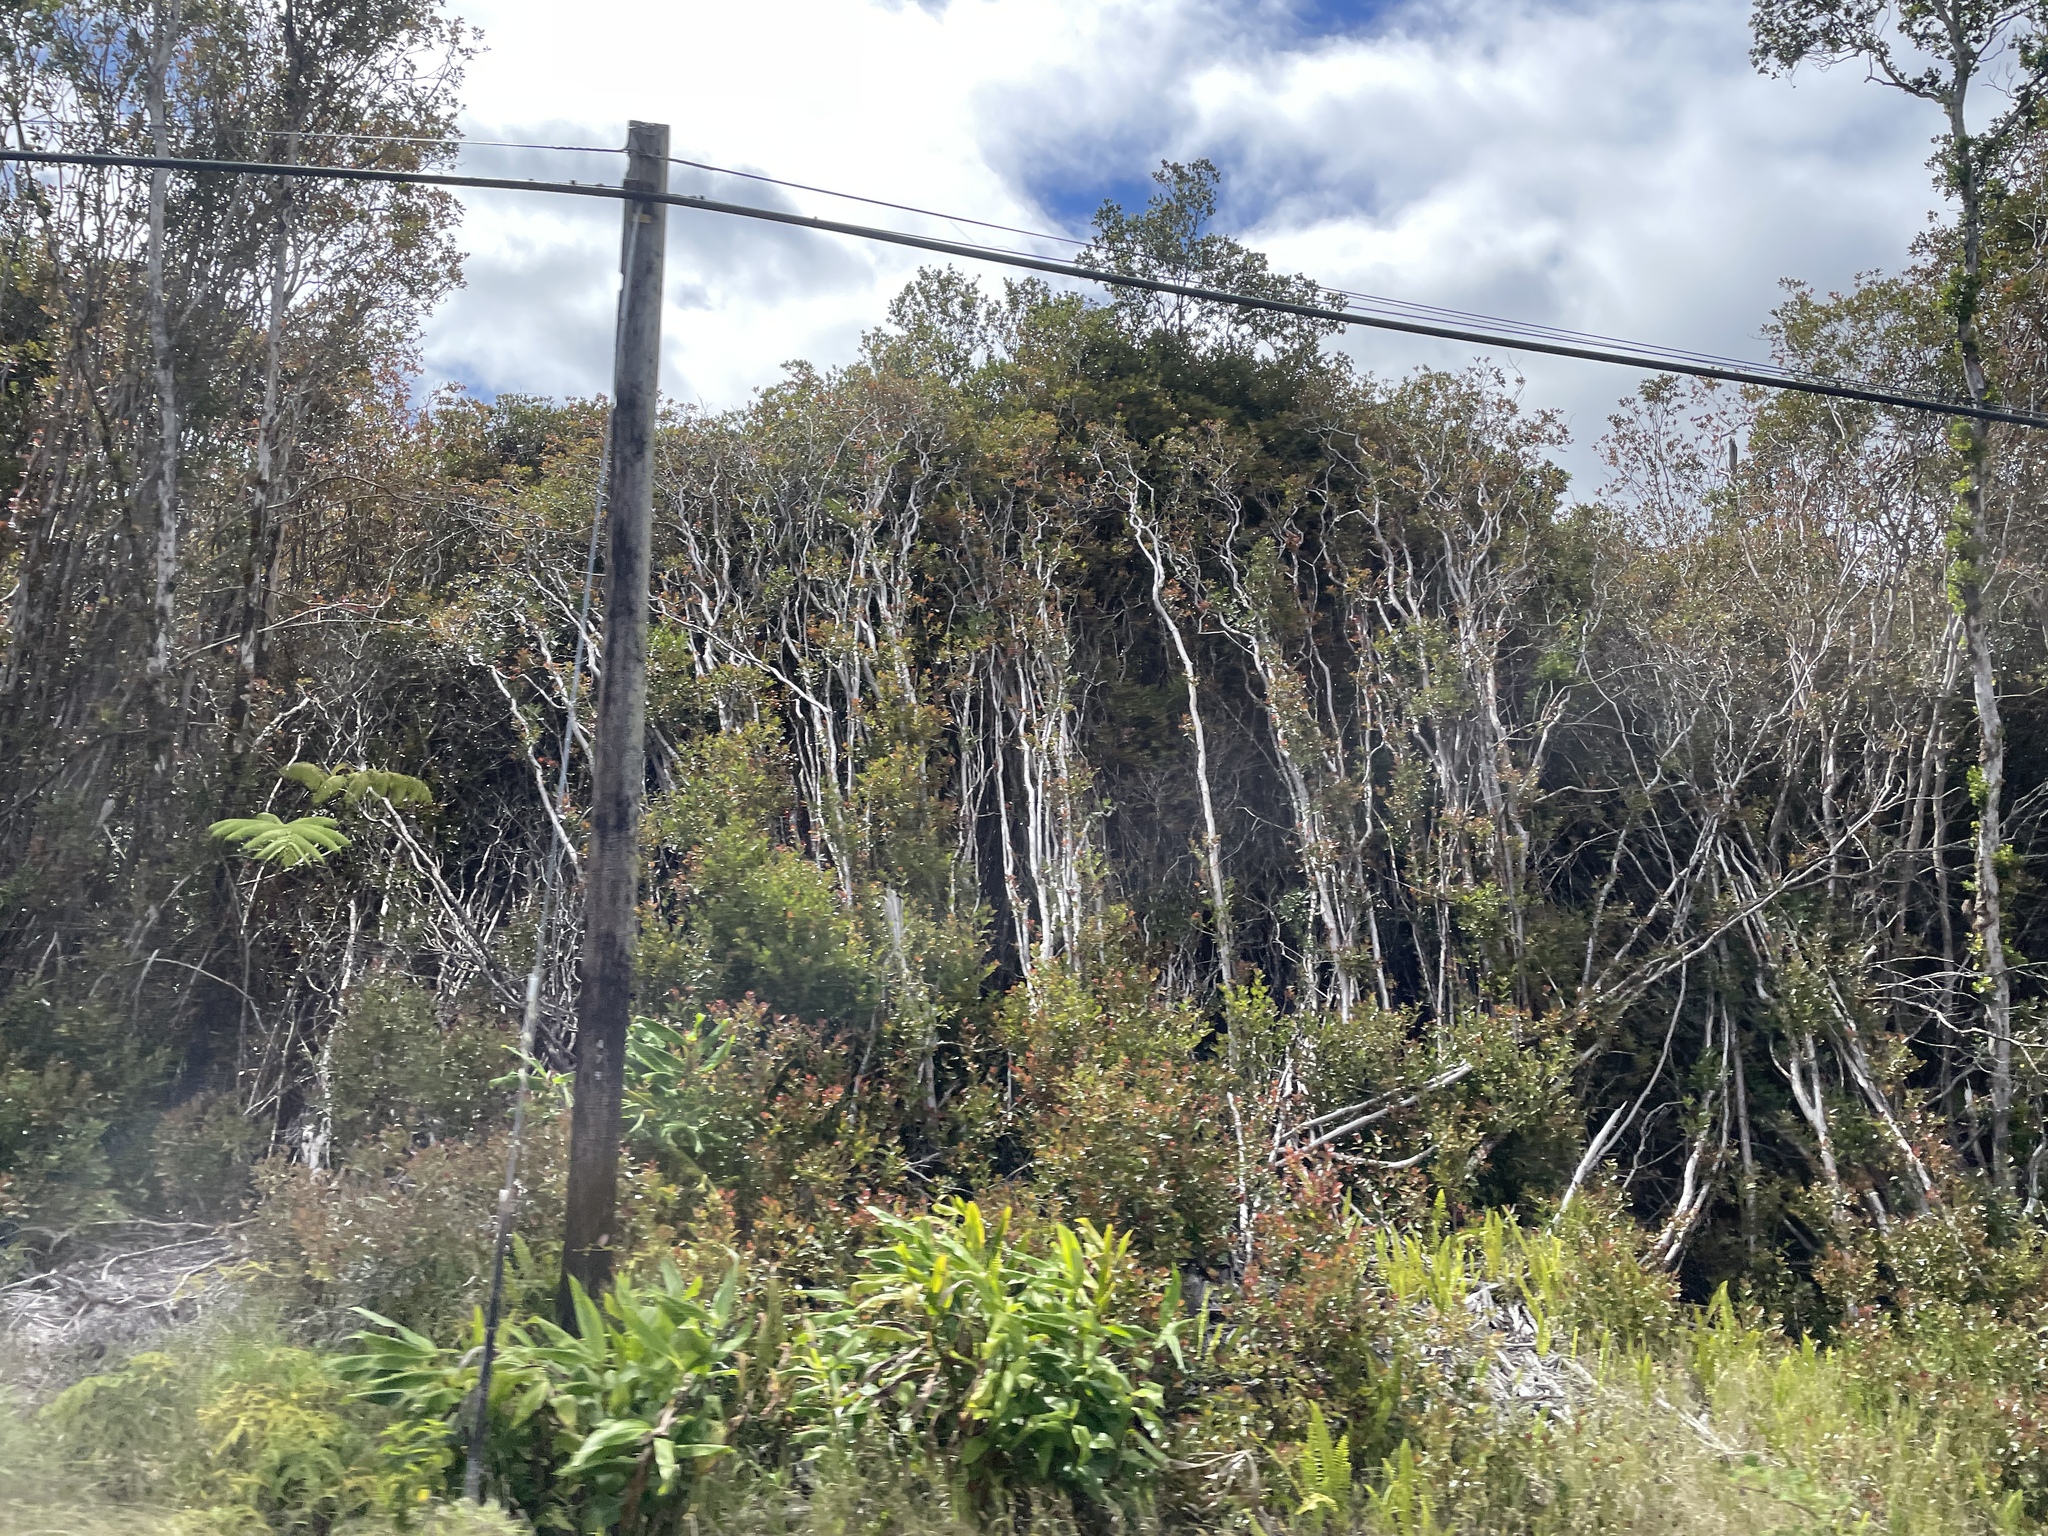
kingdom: Plantae
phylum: Tracheophyta
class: Magnoliopsida
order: Myrtales
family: Myrtaceae
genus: Psidium
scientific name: Psidium cattleianum
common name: Strawberry guava
